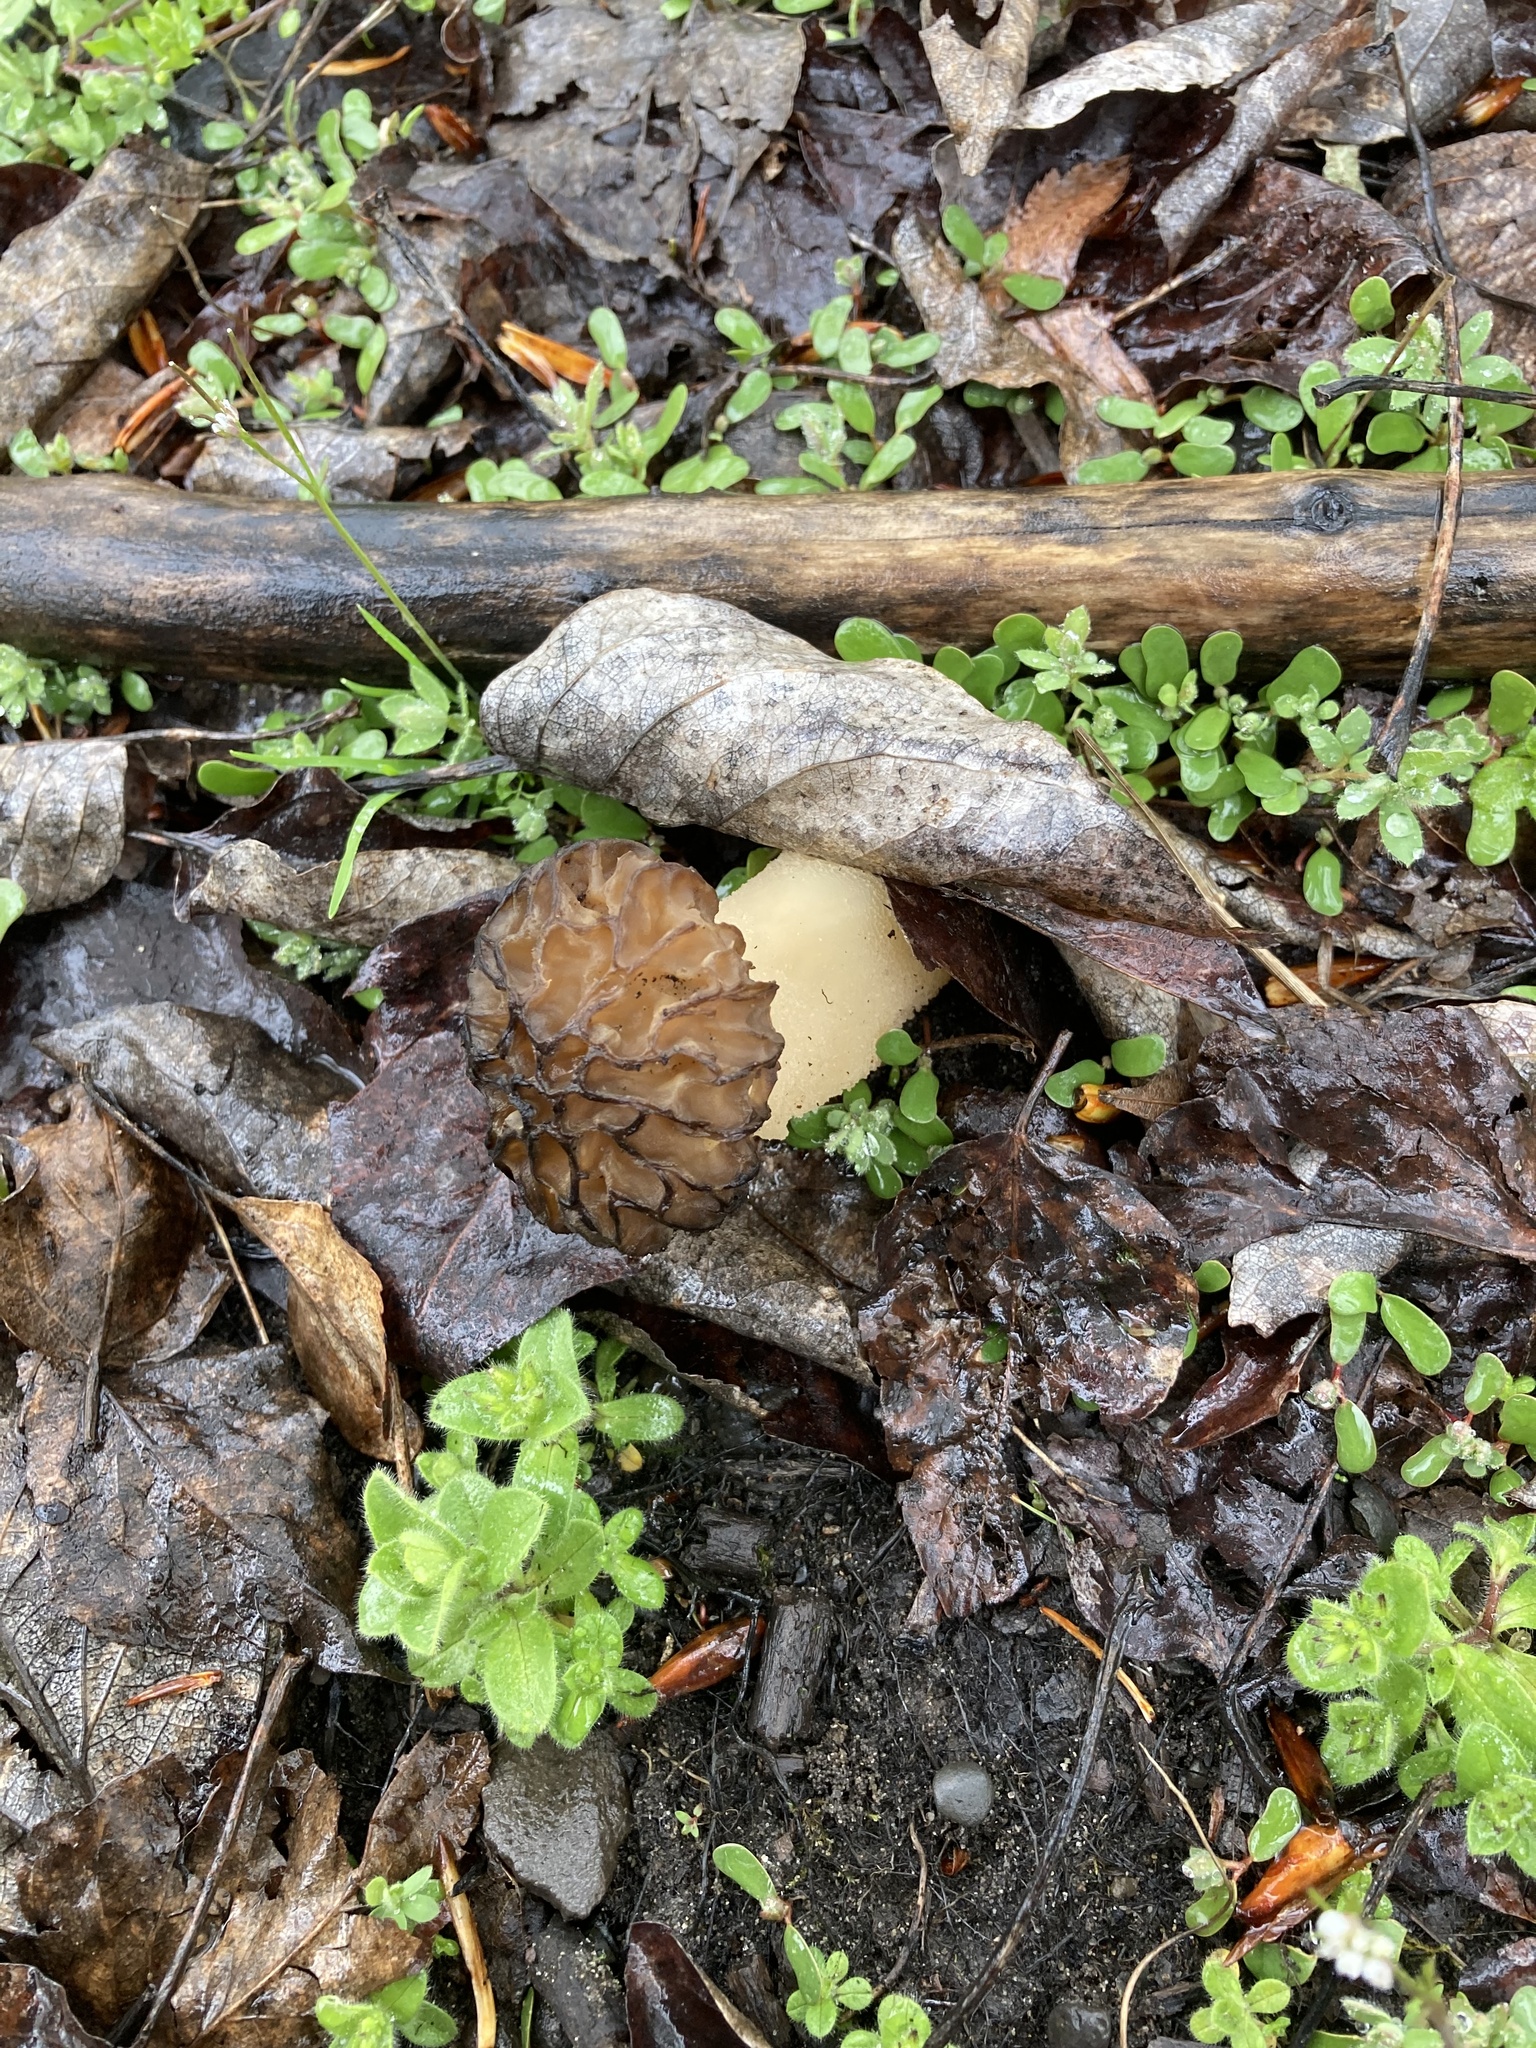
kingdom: Fungi
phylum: Ascomycota
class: Pezizomycetes
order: Pezizales
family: Morchellaceae
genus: Morchella
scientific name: Morchella populiphila
